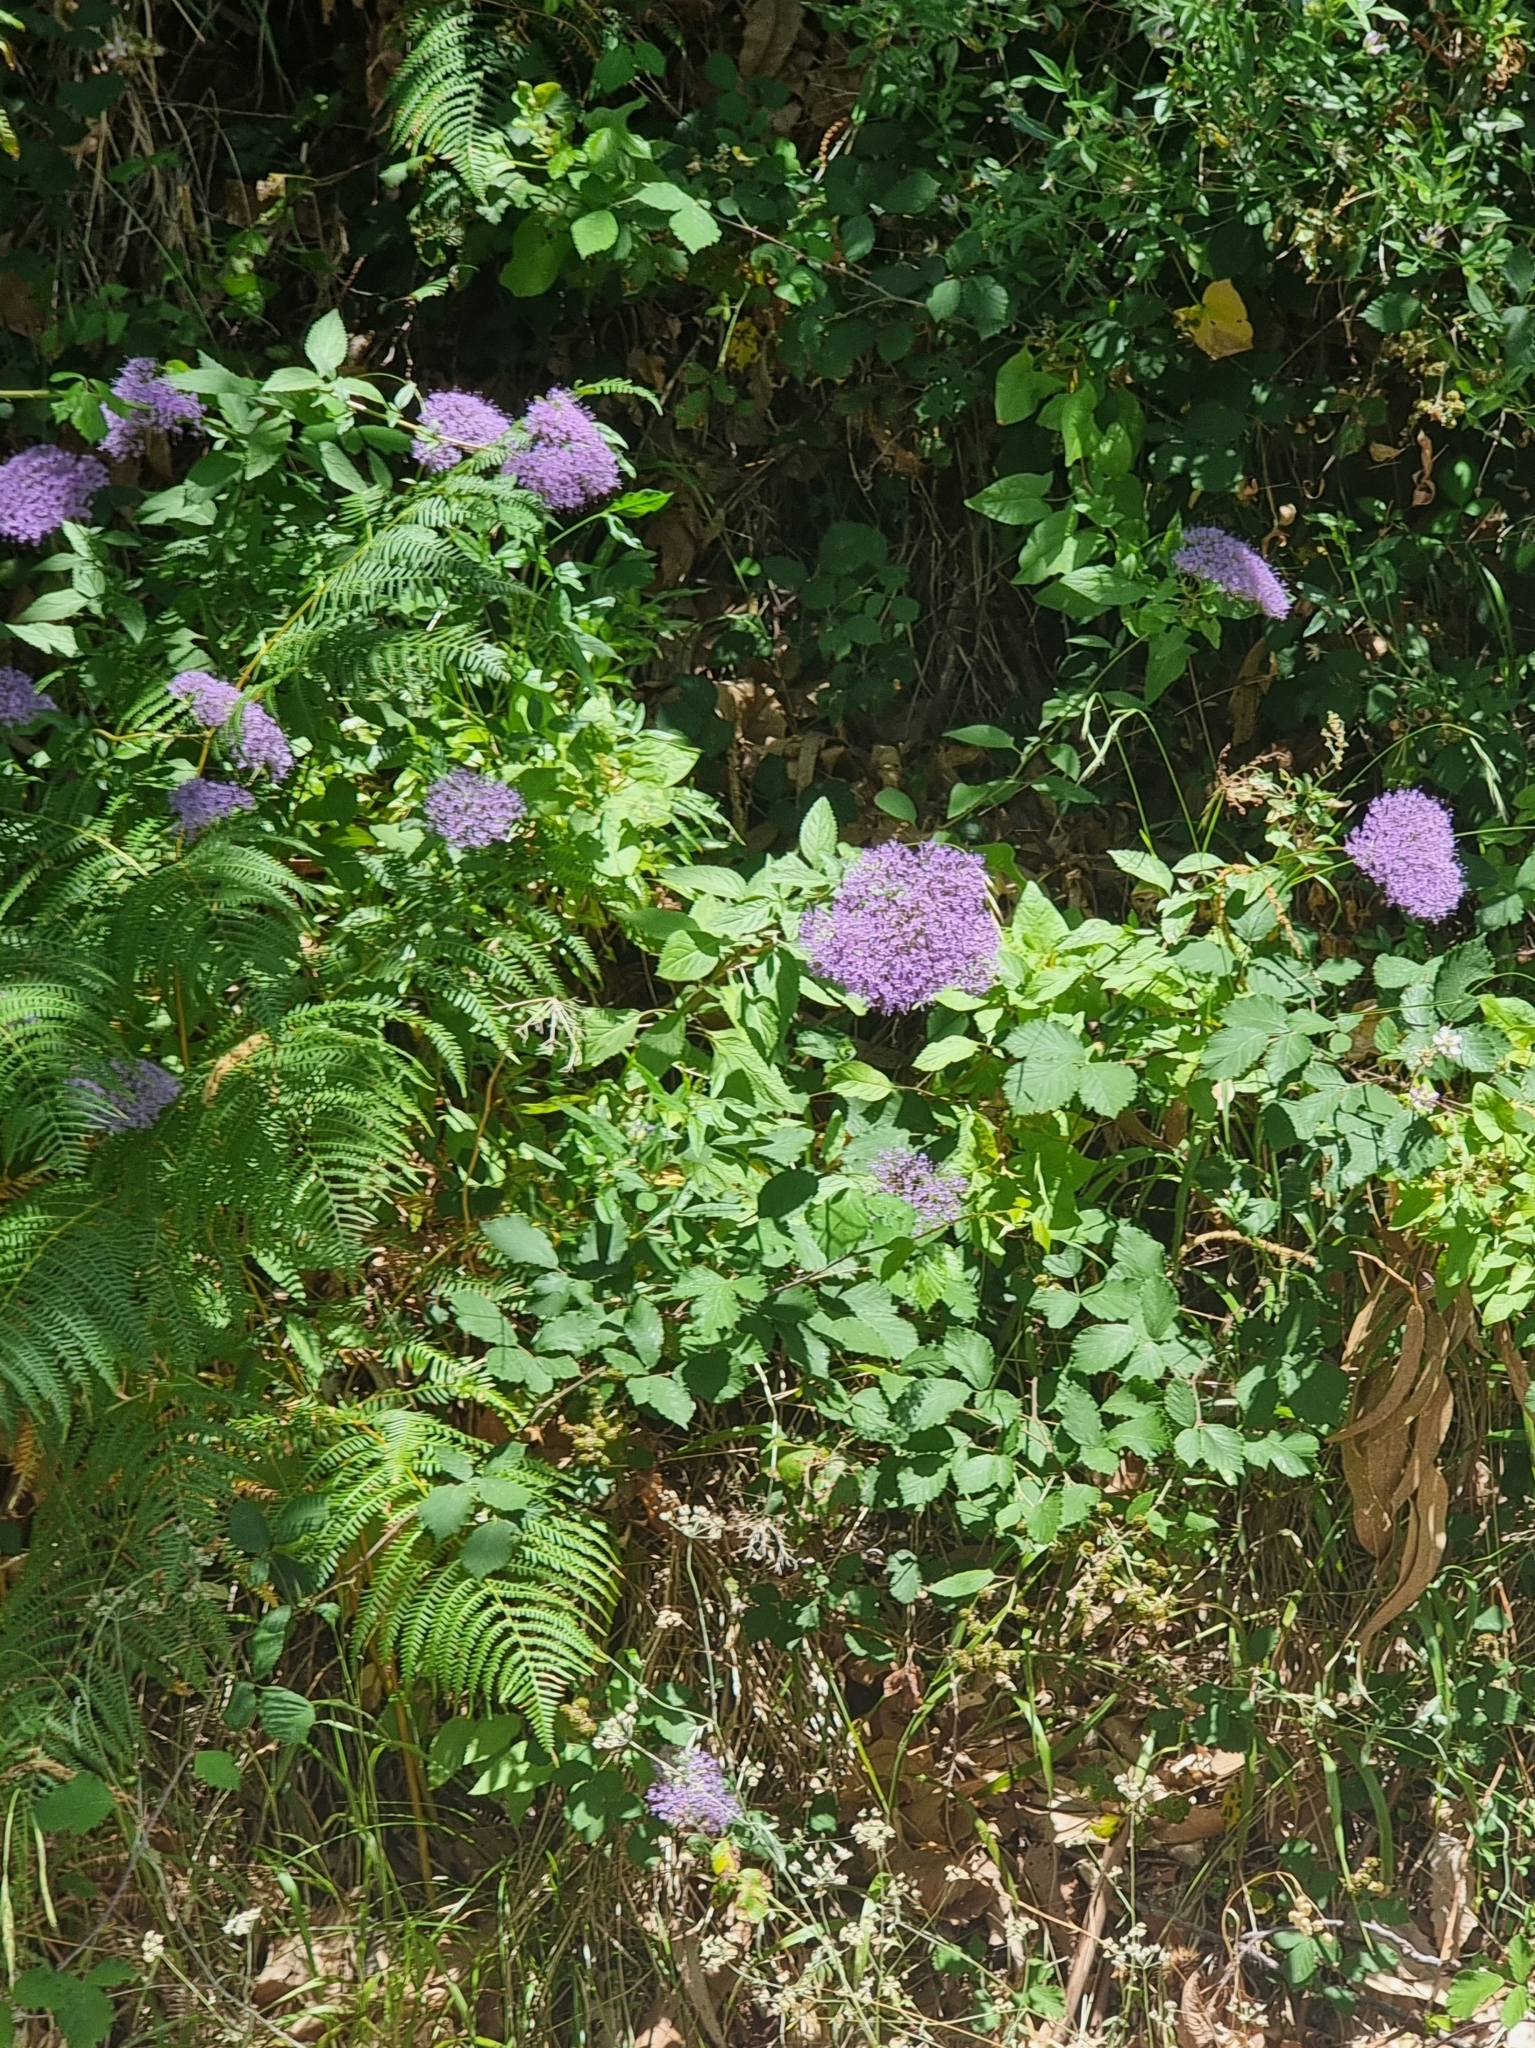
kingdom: Plantae
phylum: Tracheophyta
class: Magnoliopsida
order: Asterales
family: Campanulaceae
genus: Trachelium
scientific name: Trachelium caeruleum
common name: Throatwort
